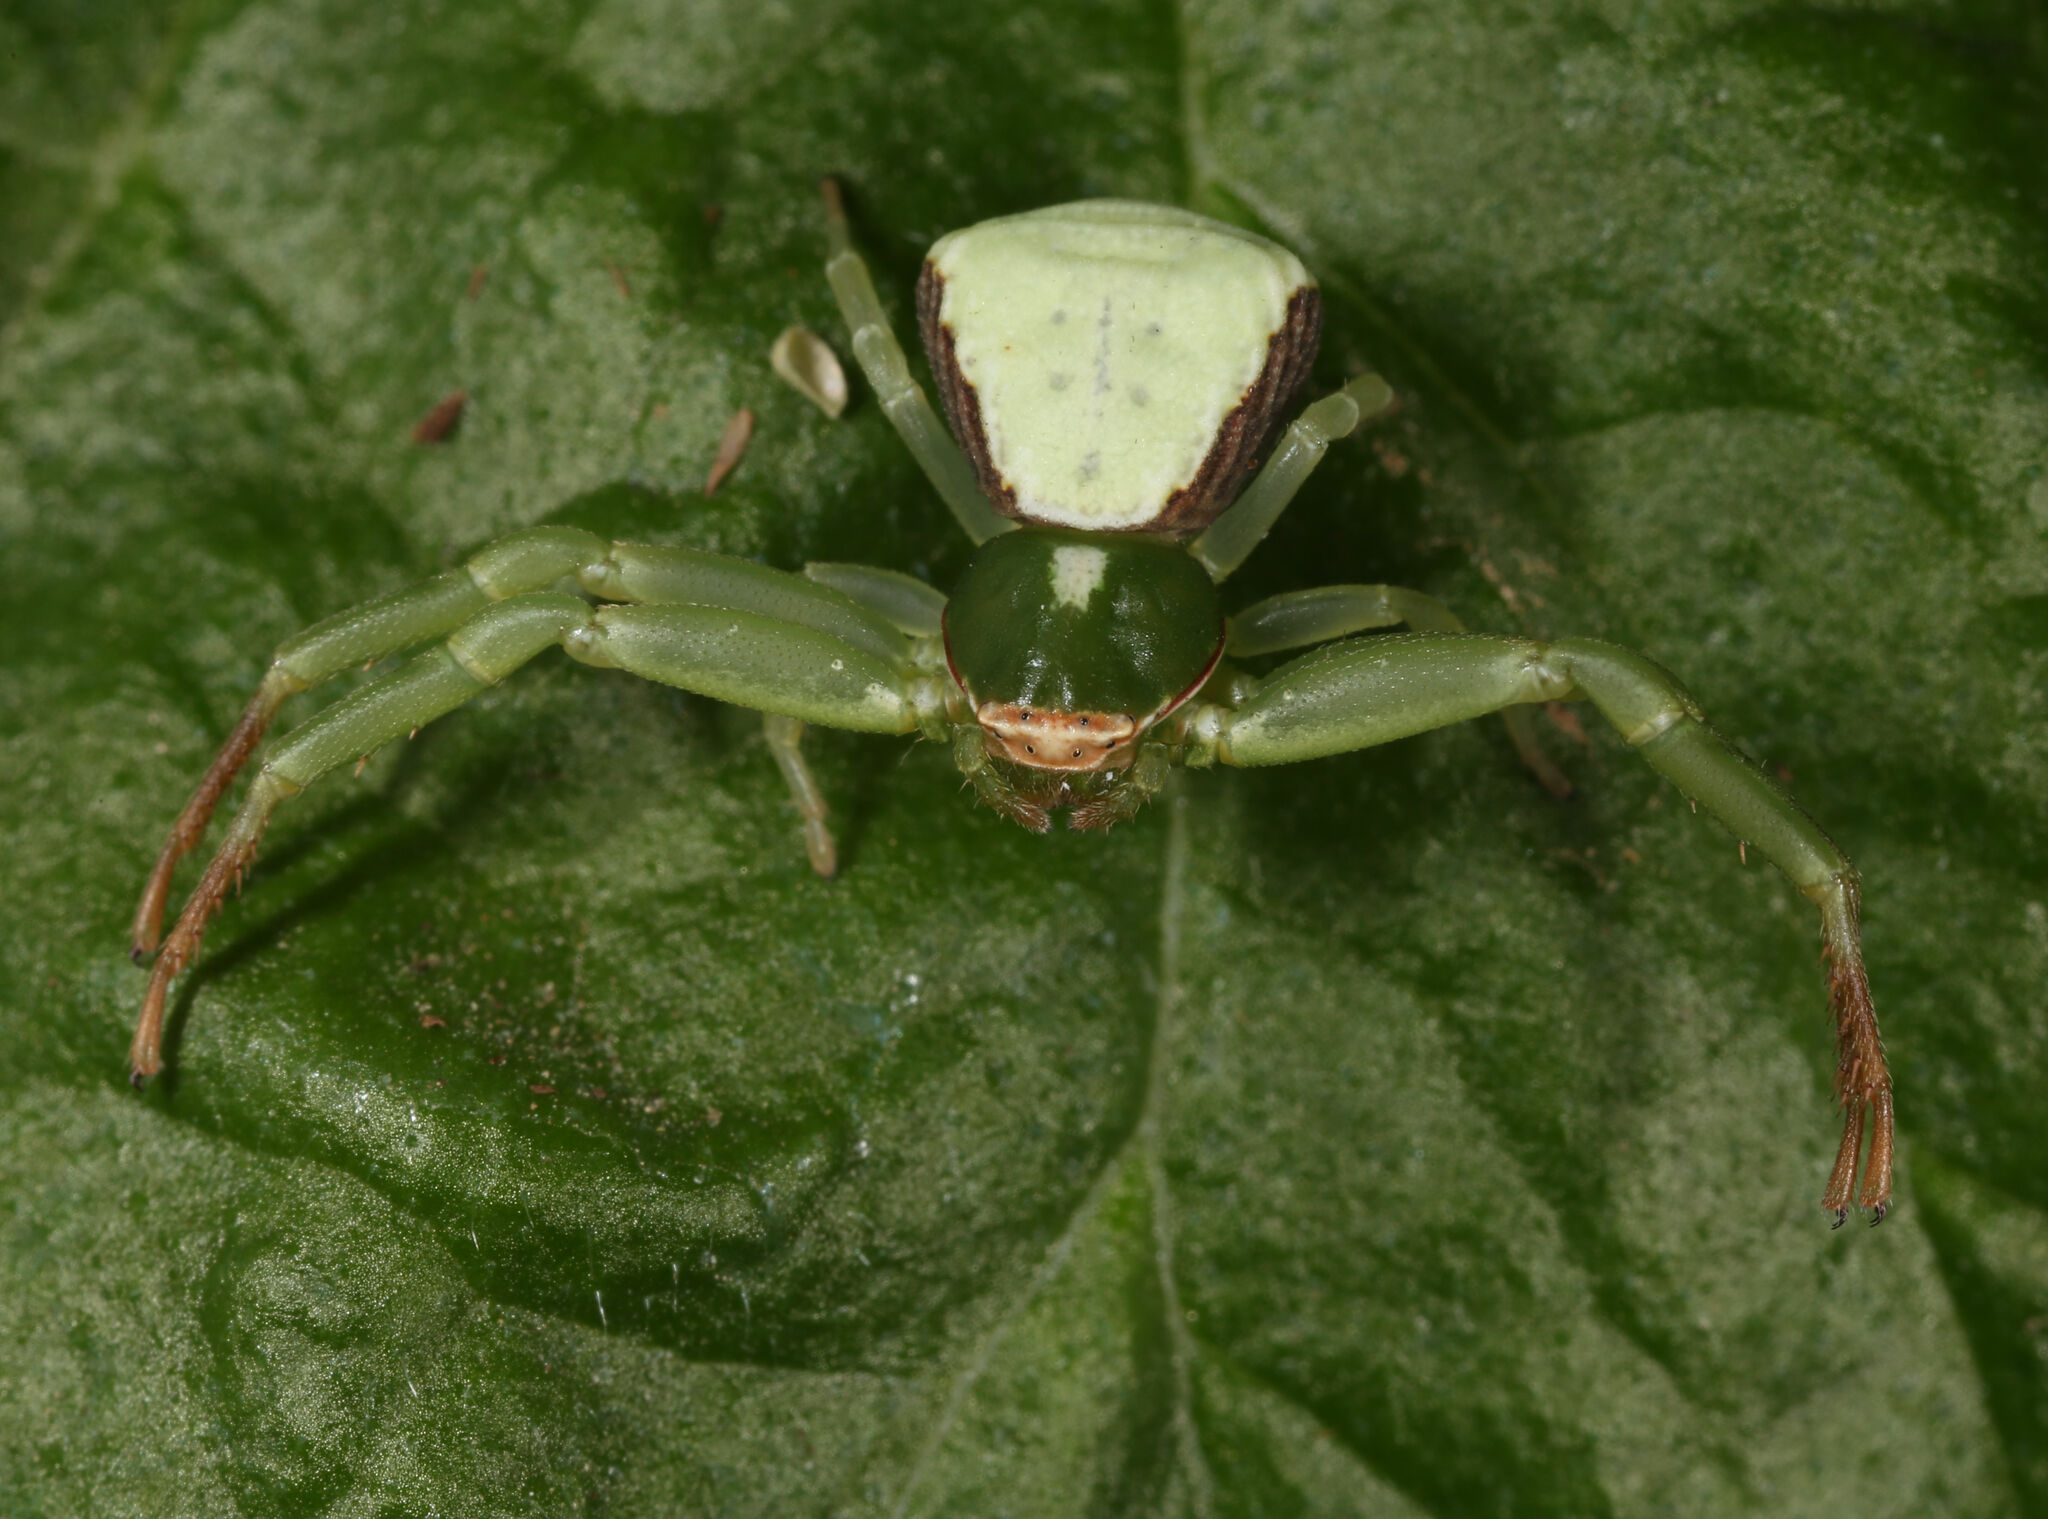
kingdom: Animalia
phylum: Arthropoda
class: Arachnida
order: Araneae
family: Thomisidae
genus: Misumenoides
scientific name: Misumenoides quetzaltocatl
